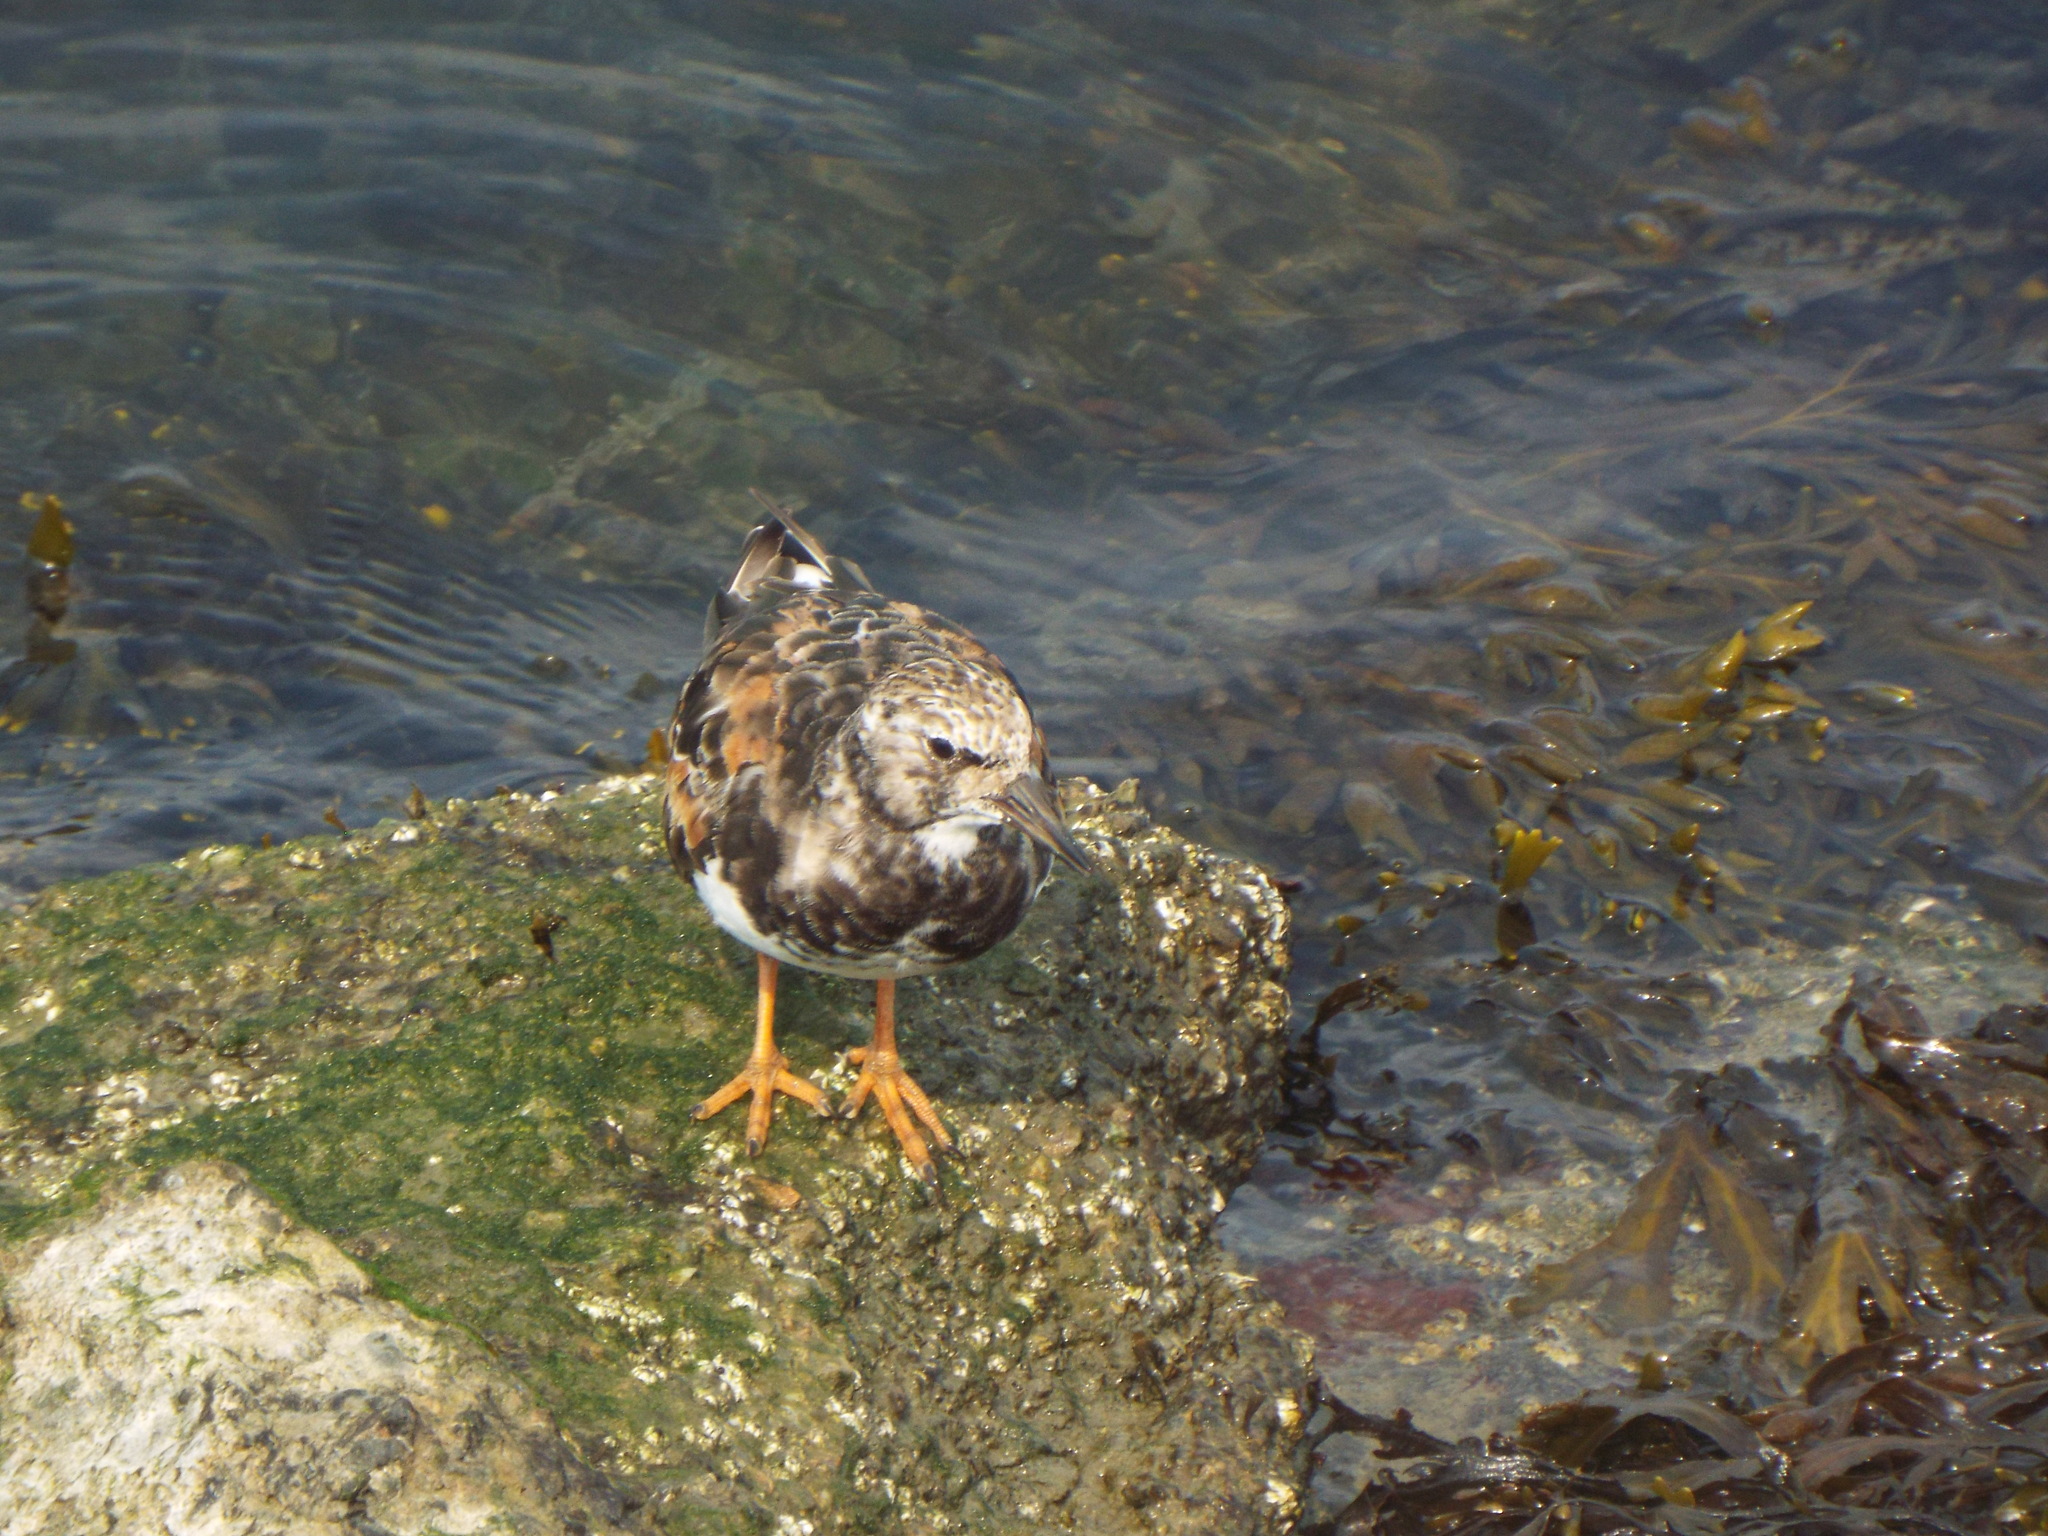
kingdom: Animalia
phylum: Chordata
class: Aves
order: Charadriiformes
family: Scolopacidae
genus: Arenaria
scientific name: Arenaria interpres
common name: Ruddy turnstone
